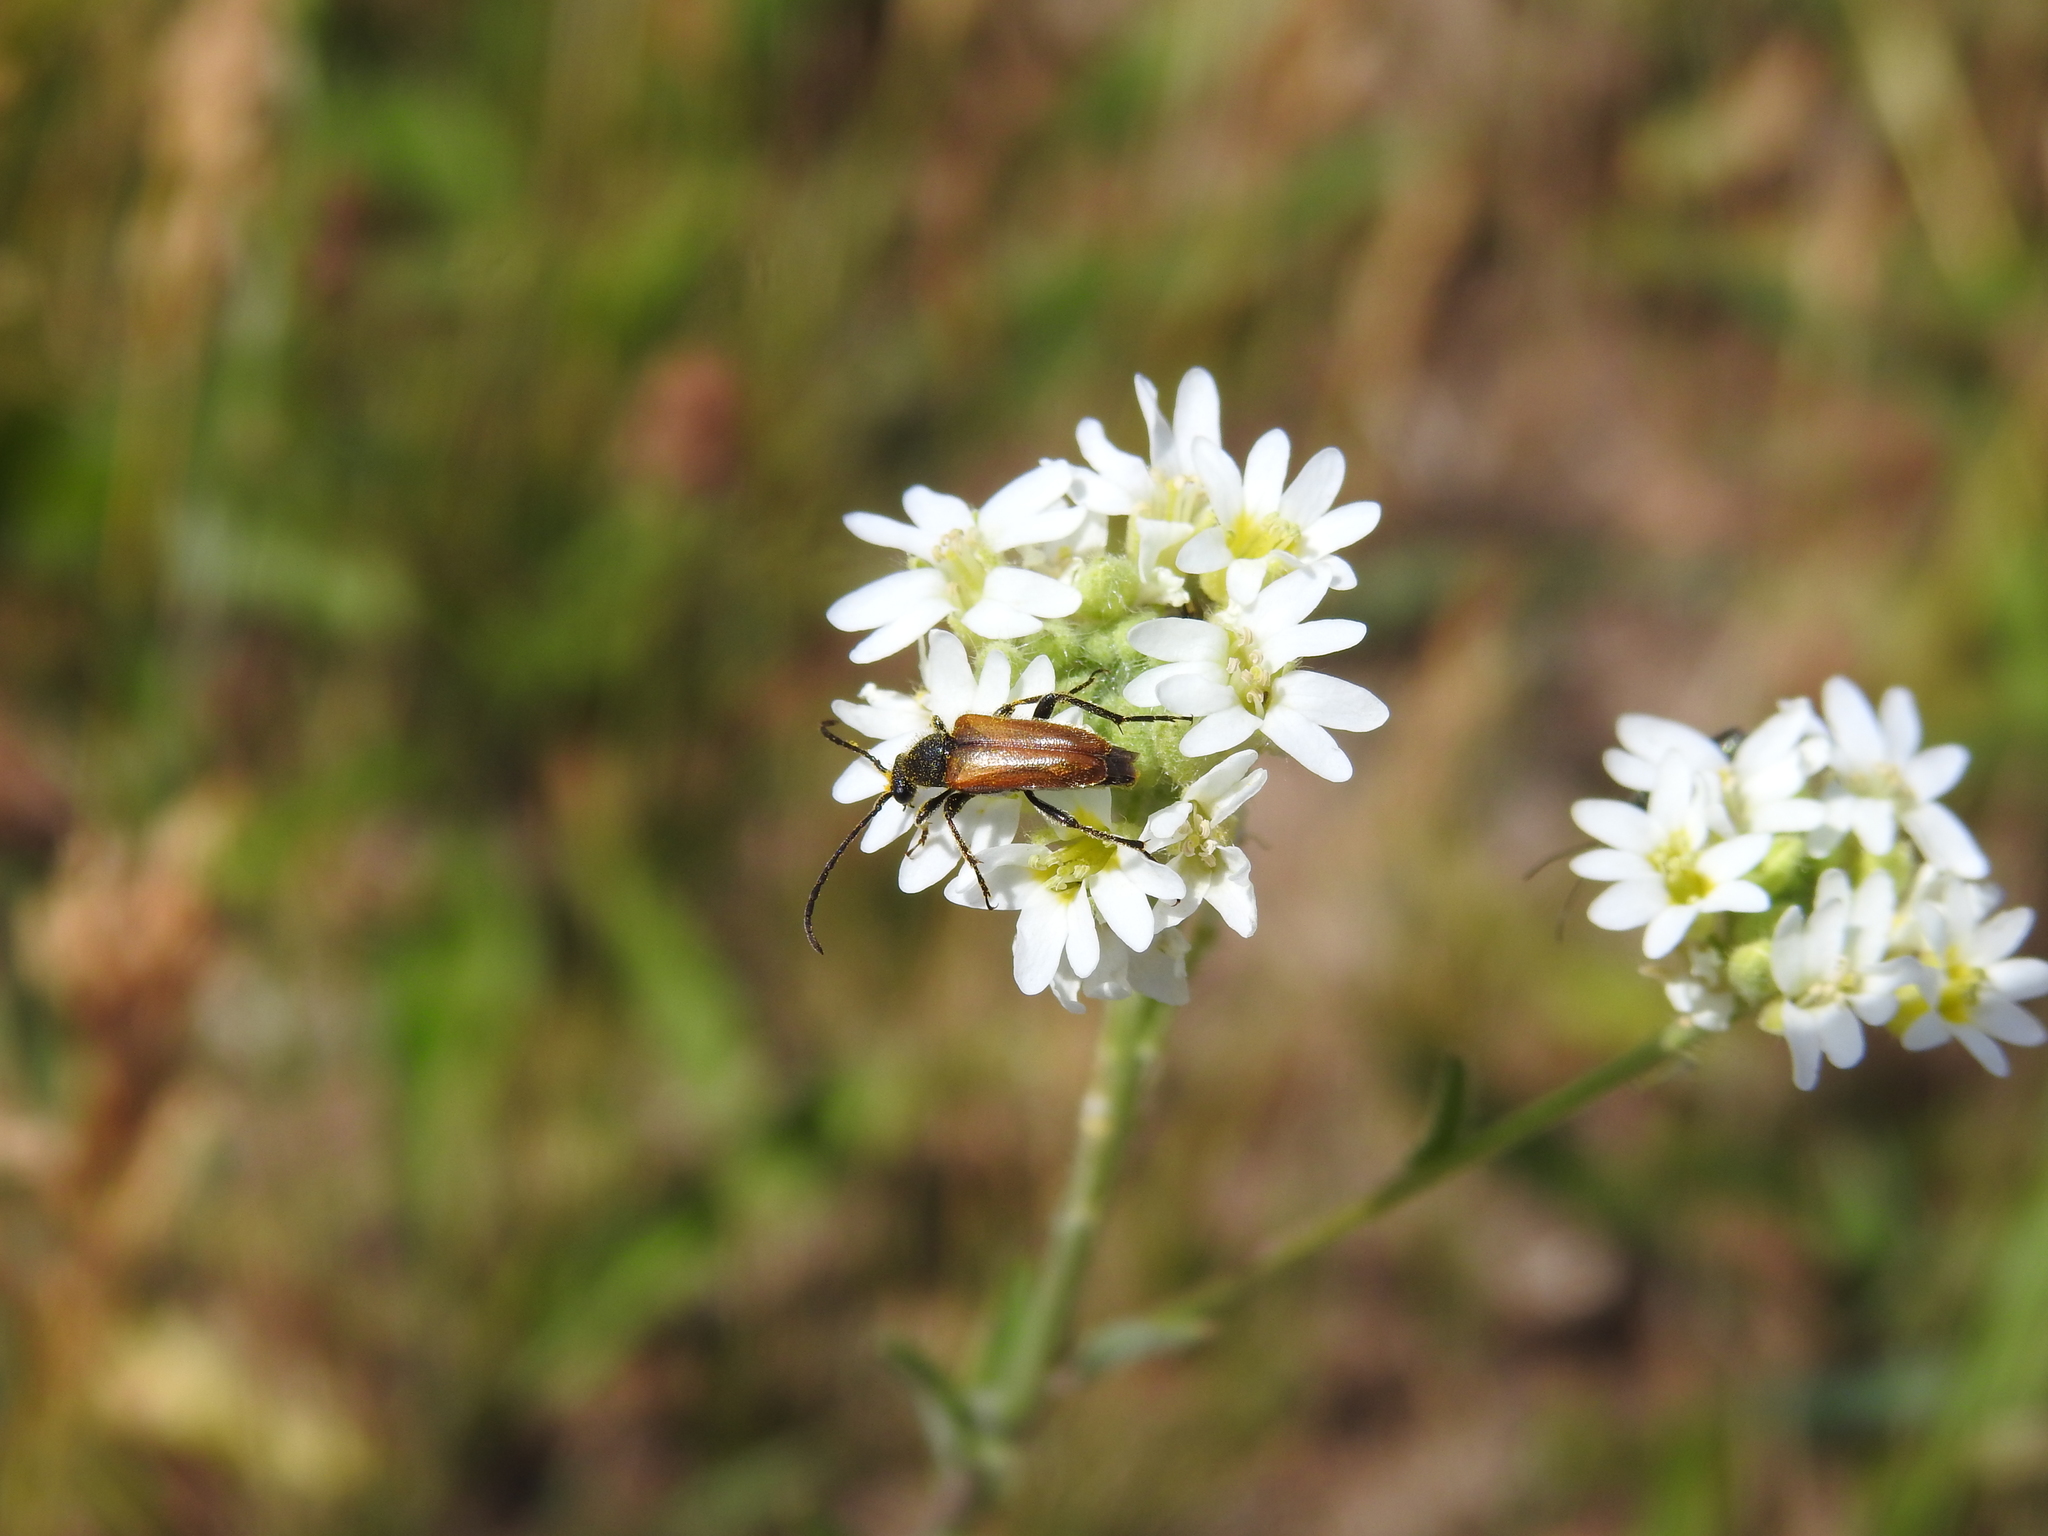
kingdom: Animalia
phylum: Arthropoda
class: Insecta
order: Coleoptera
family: Cerambycidae
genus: Pseudovadonia
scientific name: Pseudovadonia livida
